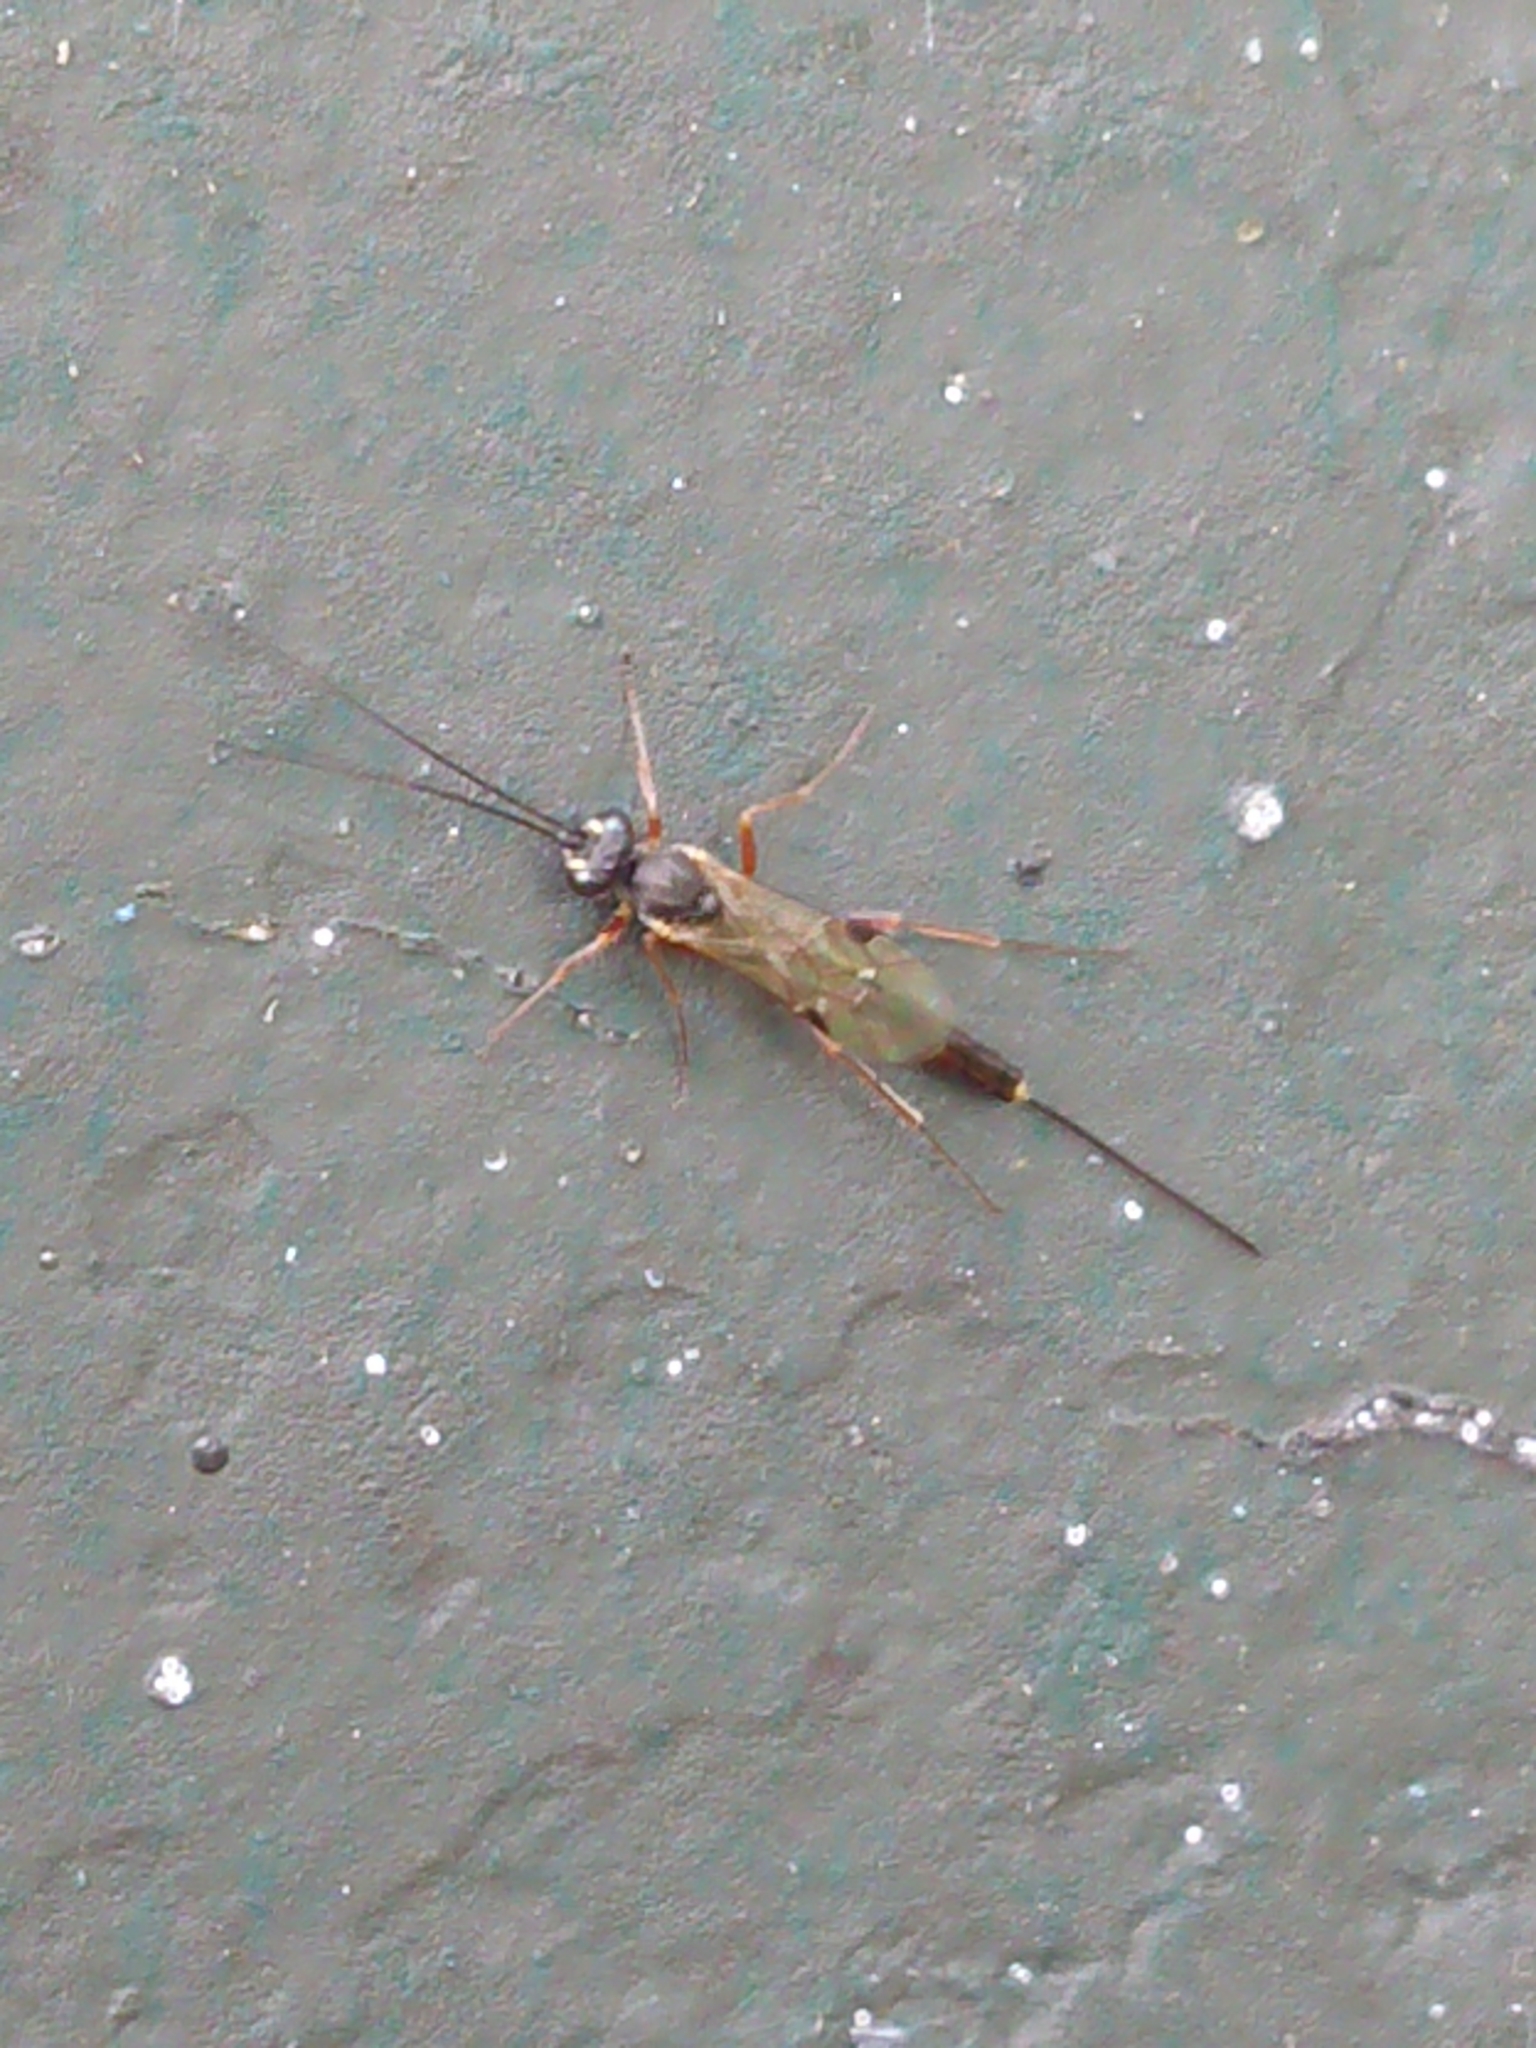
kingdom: Animalia
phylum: Arthropoda
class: Insecta
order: Hymenoptera
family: Ichneumonidae
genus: Trathala
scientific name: Trathala agnina
